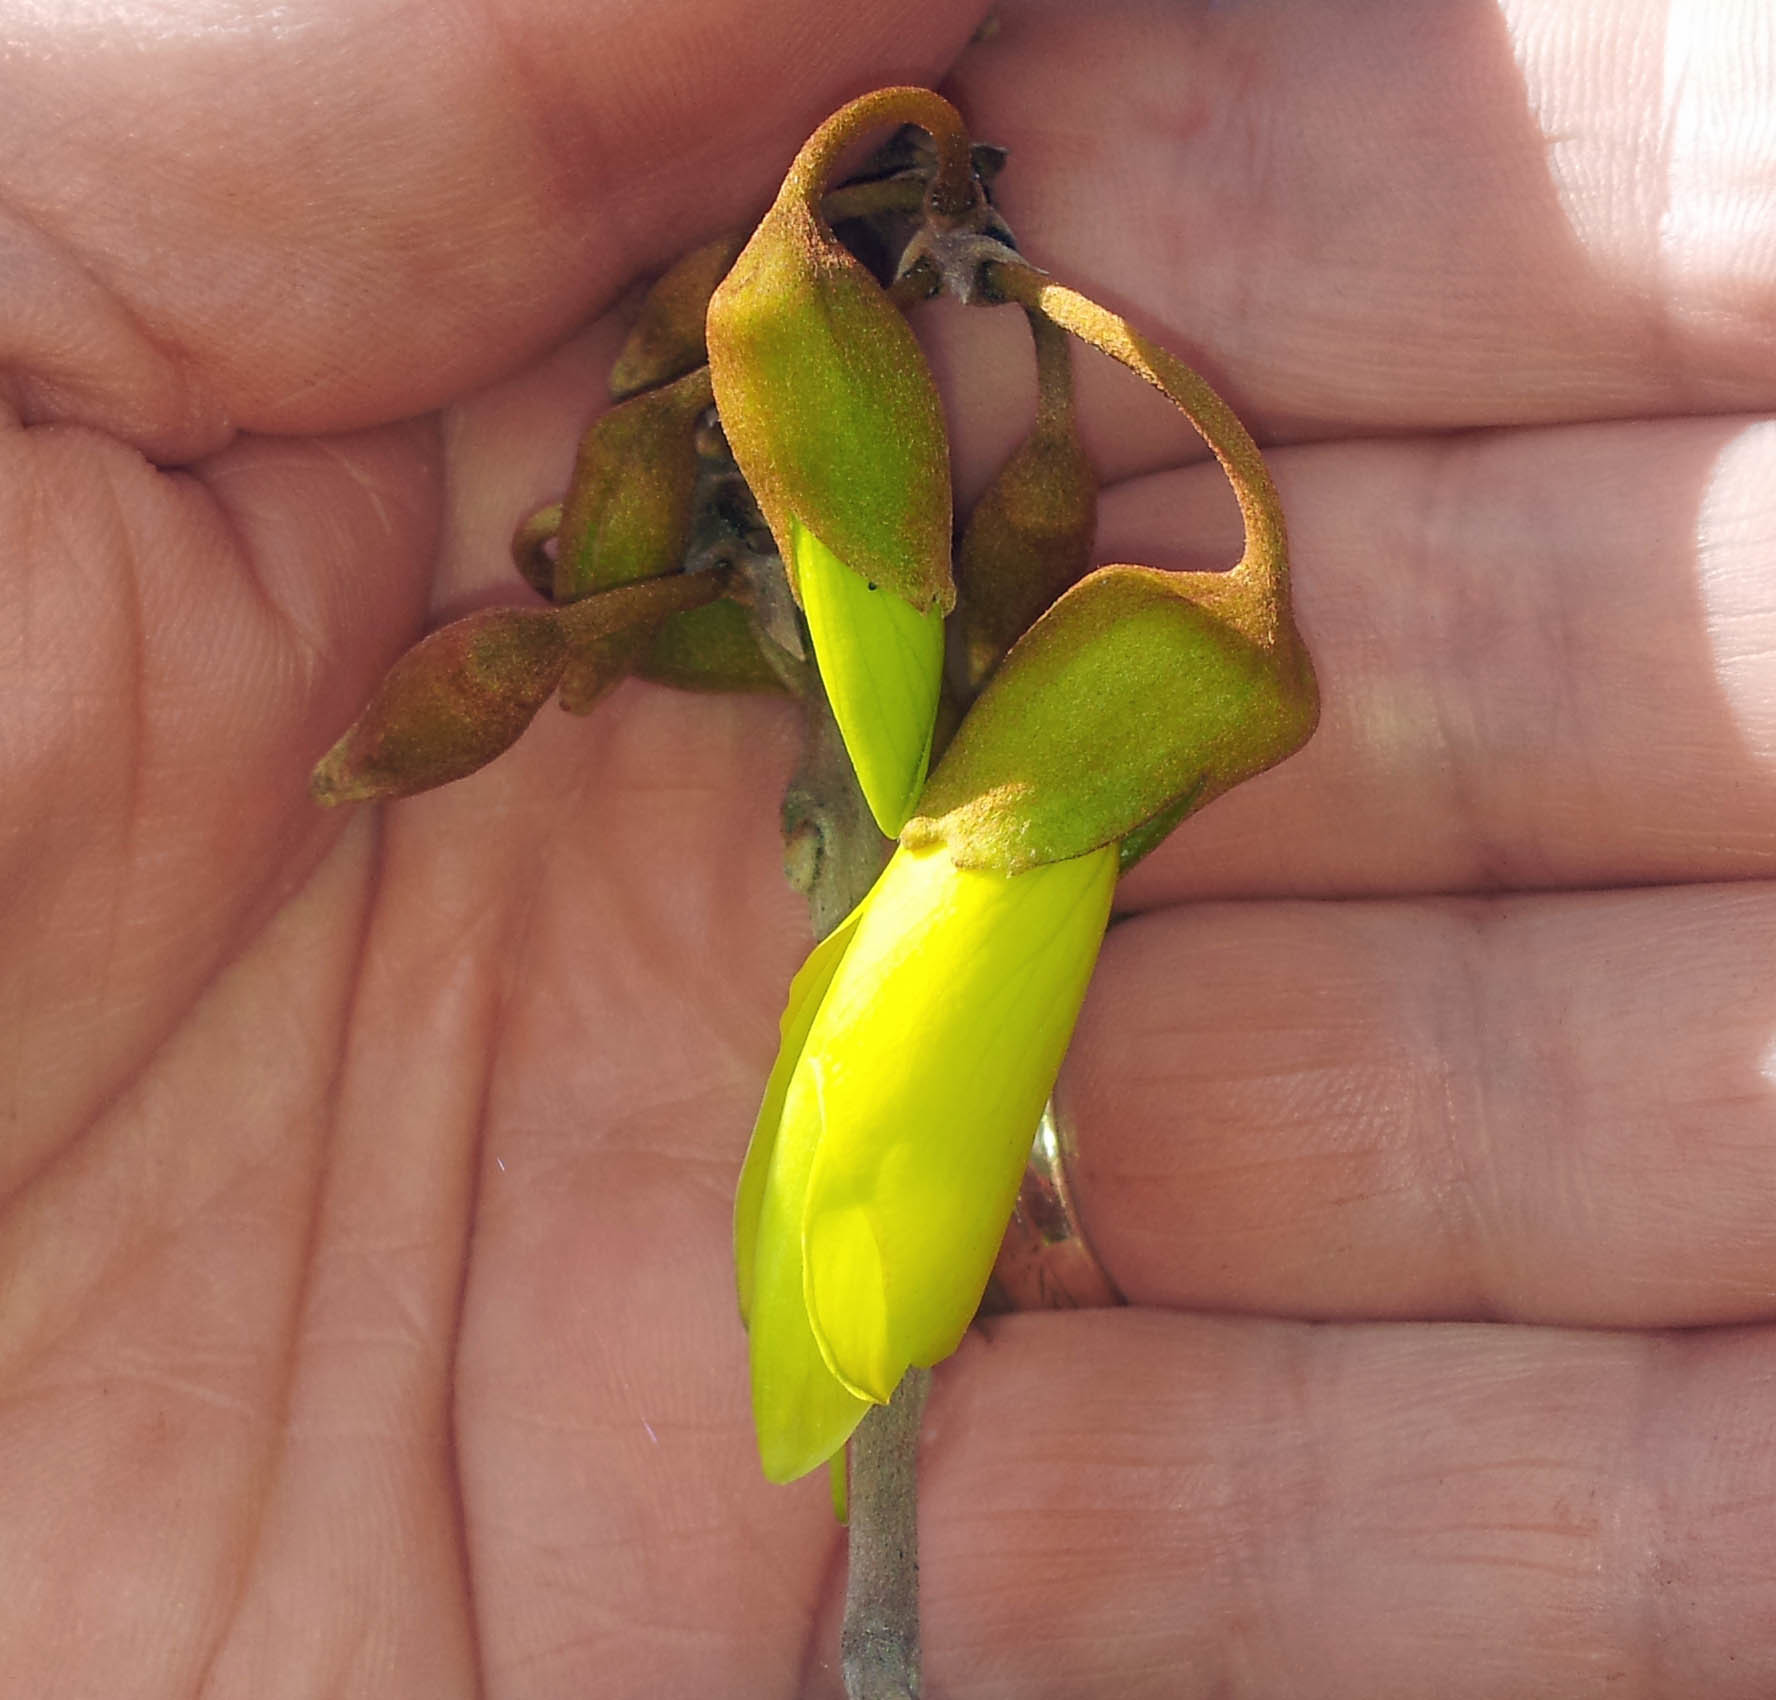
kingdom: Plantae
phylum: Tracheophyta
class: Magnoliopsida
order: Fabales
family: Fabaceae
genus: Sophora
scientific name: Sophora chathamica
